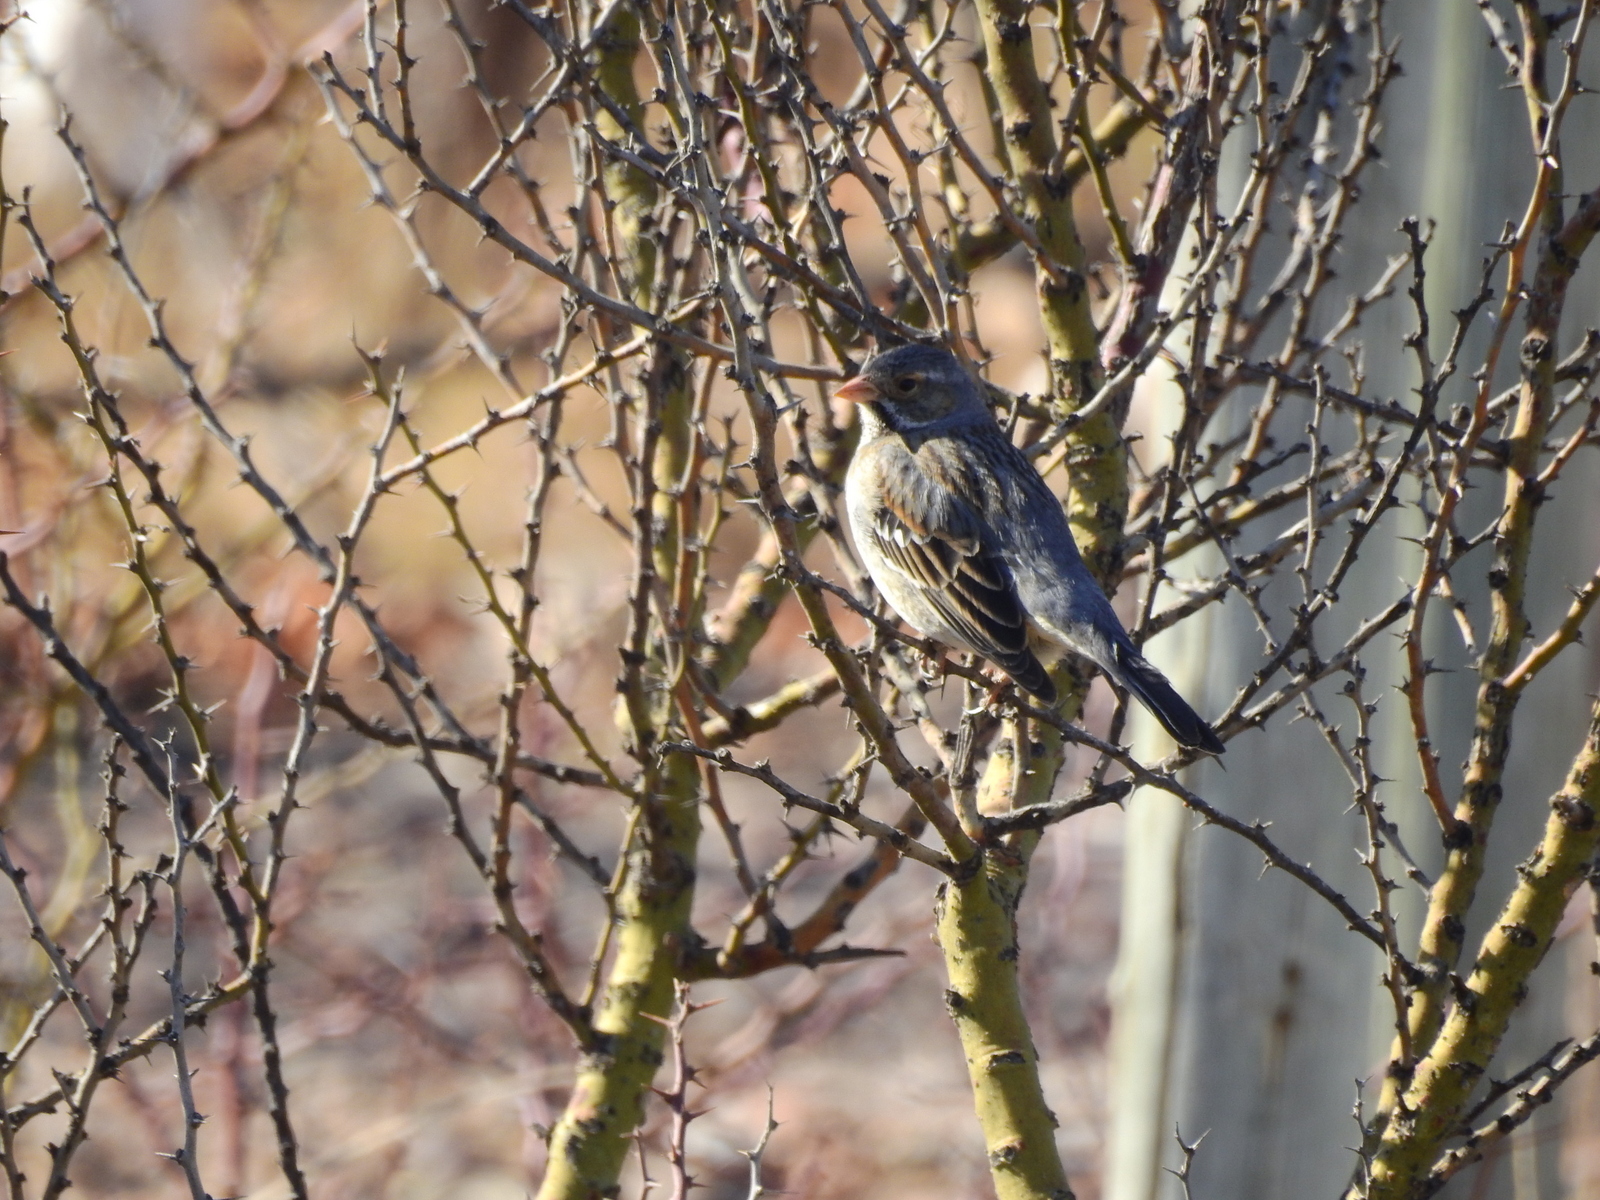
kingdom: Animalia
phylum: Chordata
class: Aves
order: Passeriformes
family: Thraupidae
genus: Rhopospina
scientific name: Rhopospina fruticeti
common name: Mourning sierra finch
